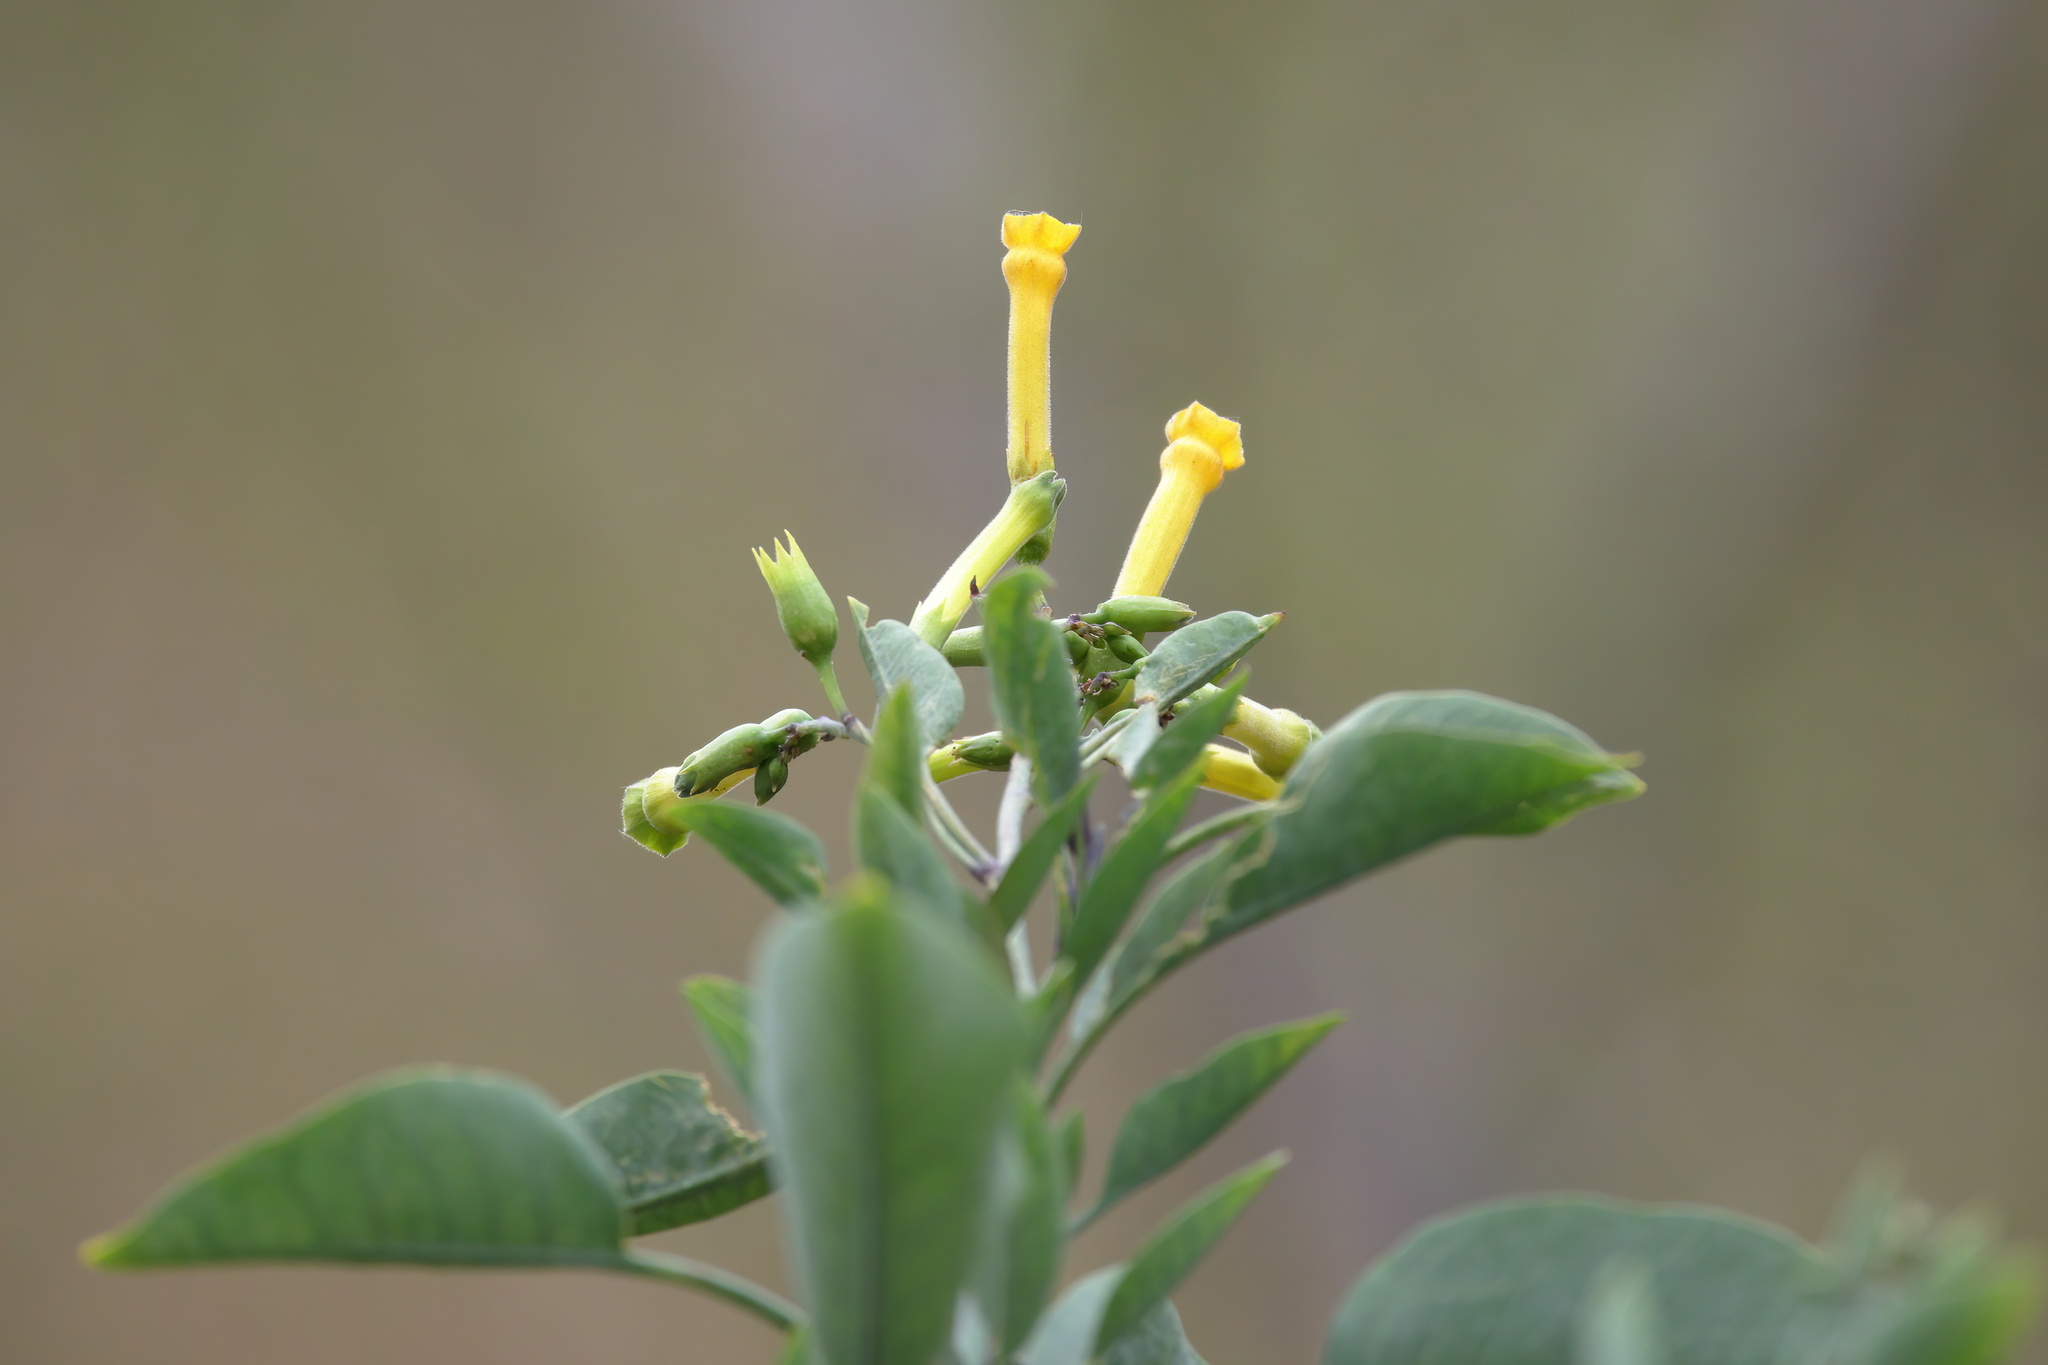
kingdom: Plantae
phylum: Tracheophyta
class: Magnoliopsida
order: Solanales
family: Solanaceae
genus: Nicotiana
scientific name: Nicotiana glauca
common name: Tree tobacco
